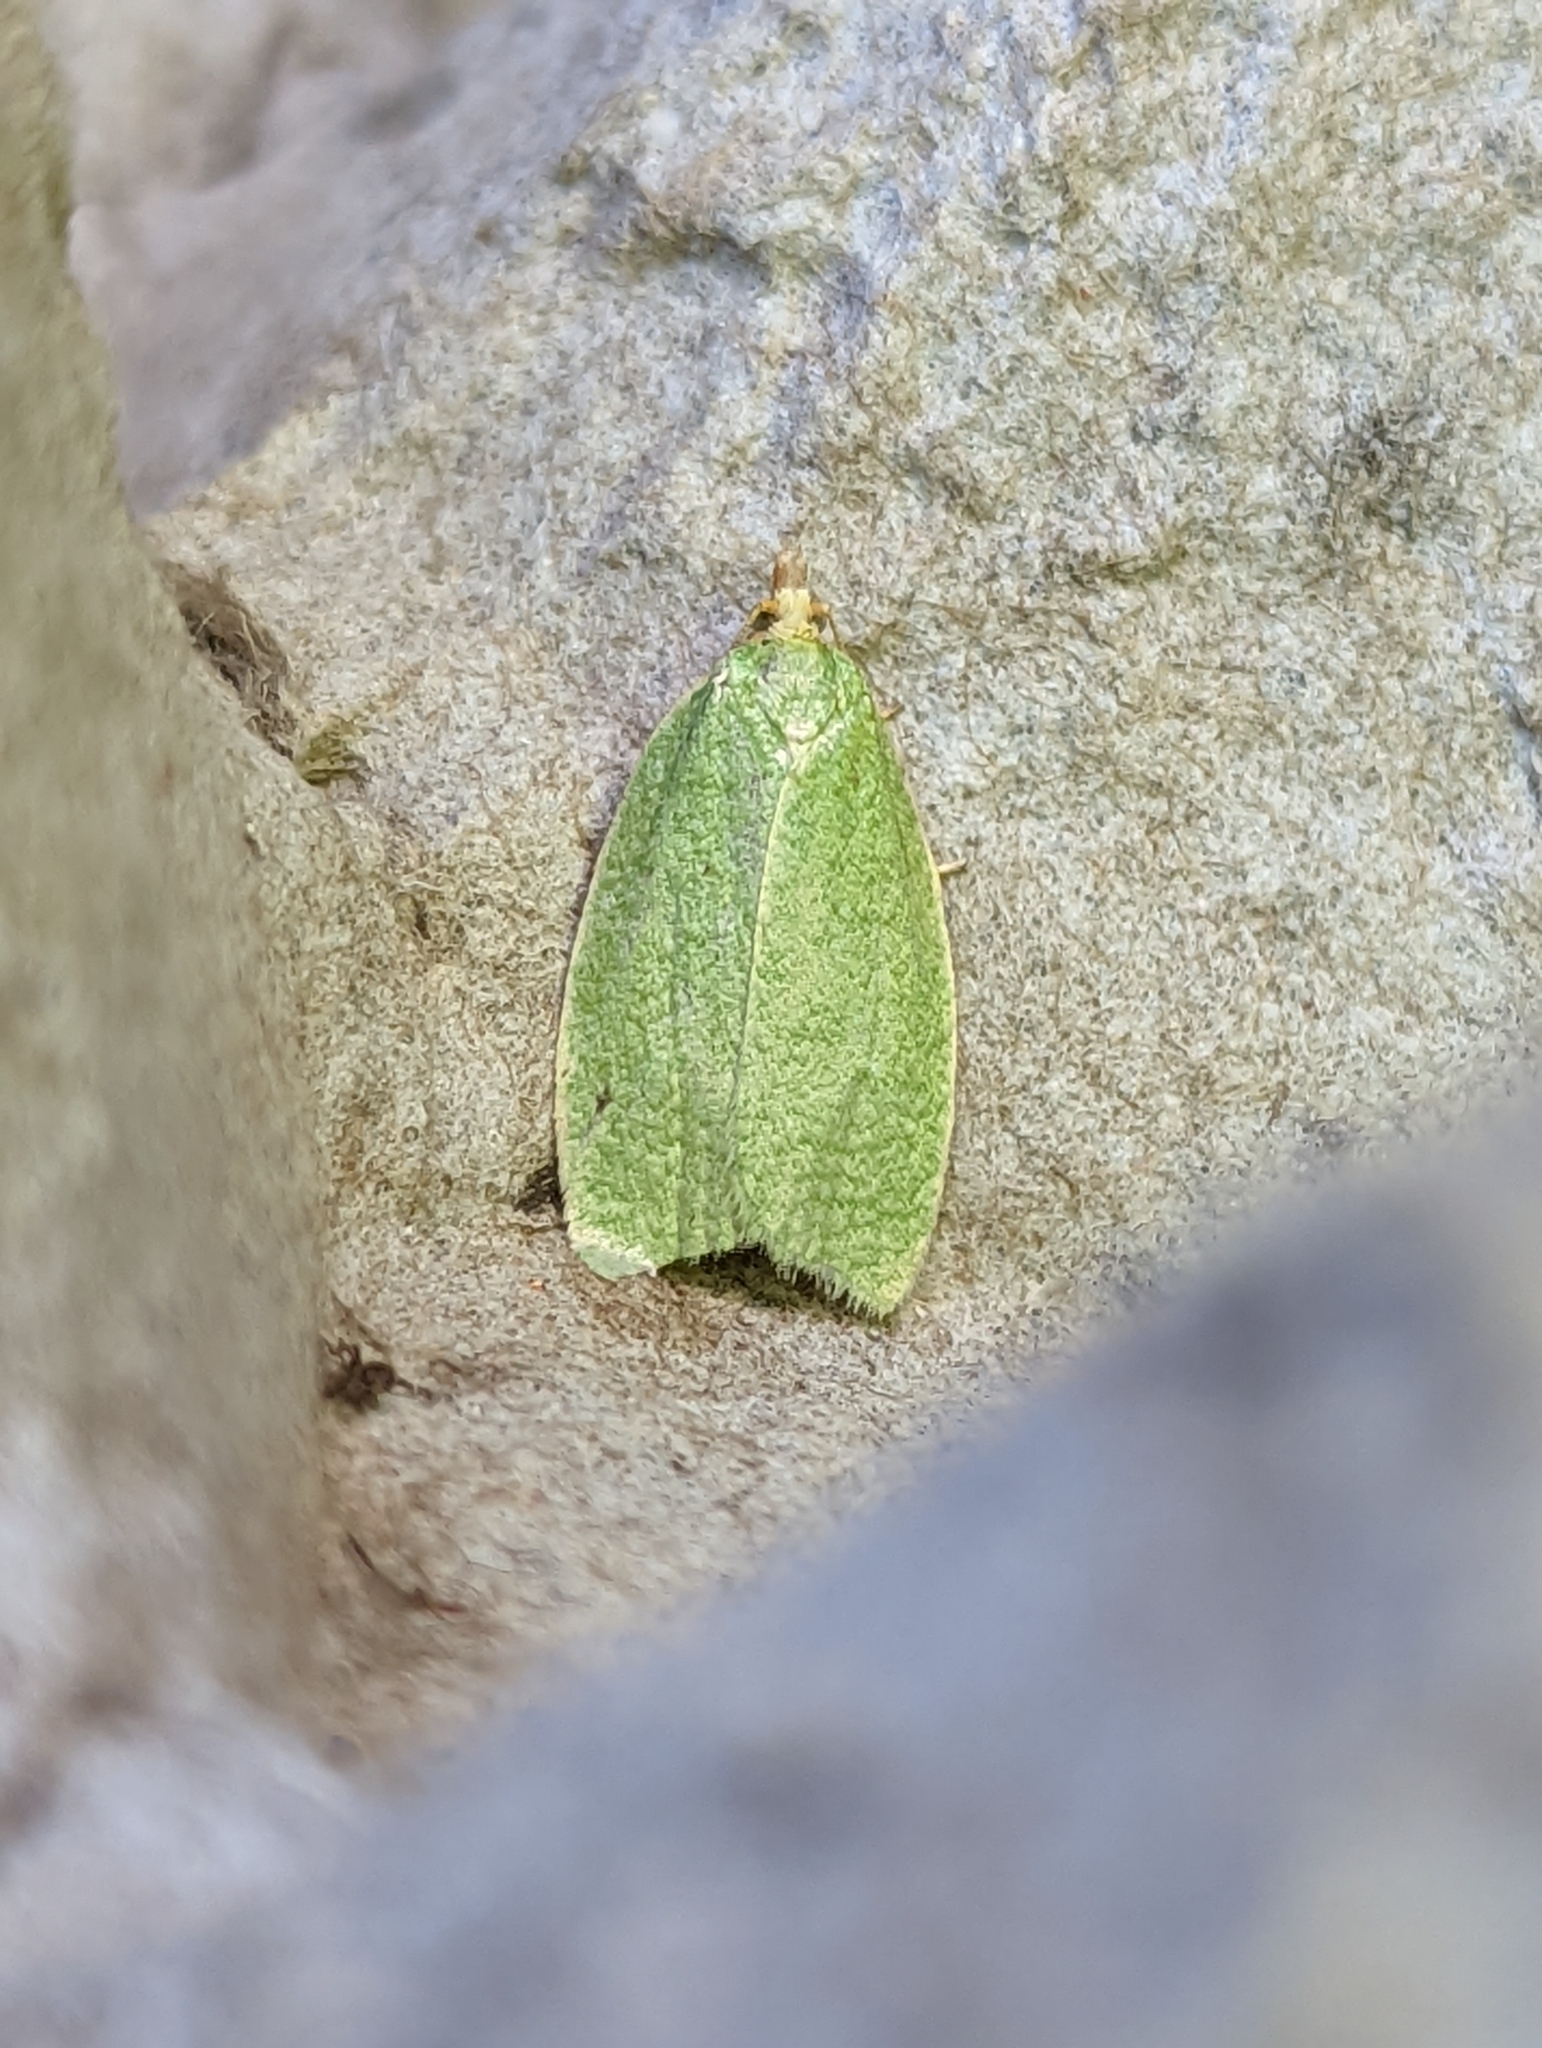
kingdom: Animalia
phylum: Arthropoda
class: Insecta
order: Lepidoptera
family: Tortricidae
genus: Tortrix
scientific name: Tortrix viridana
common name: Green oak tortrix
